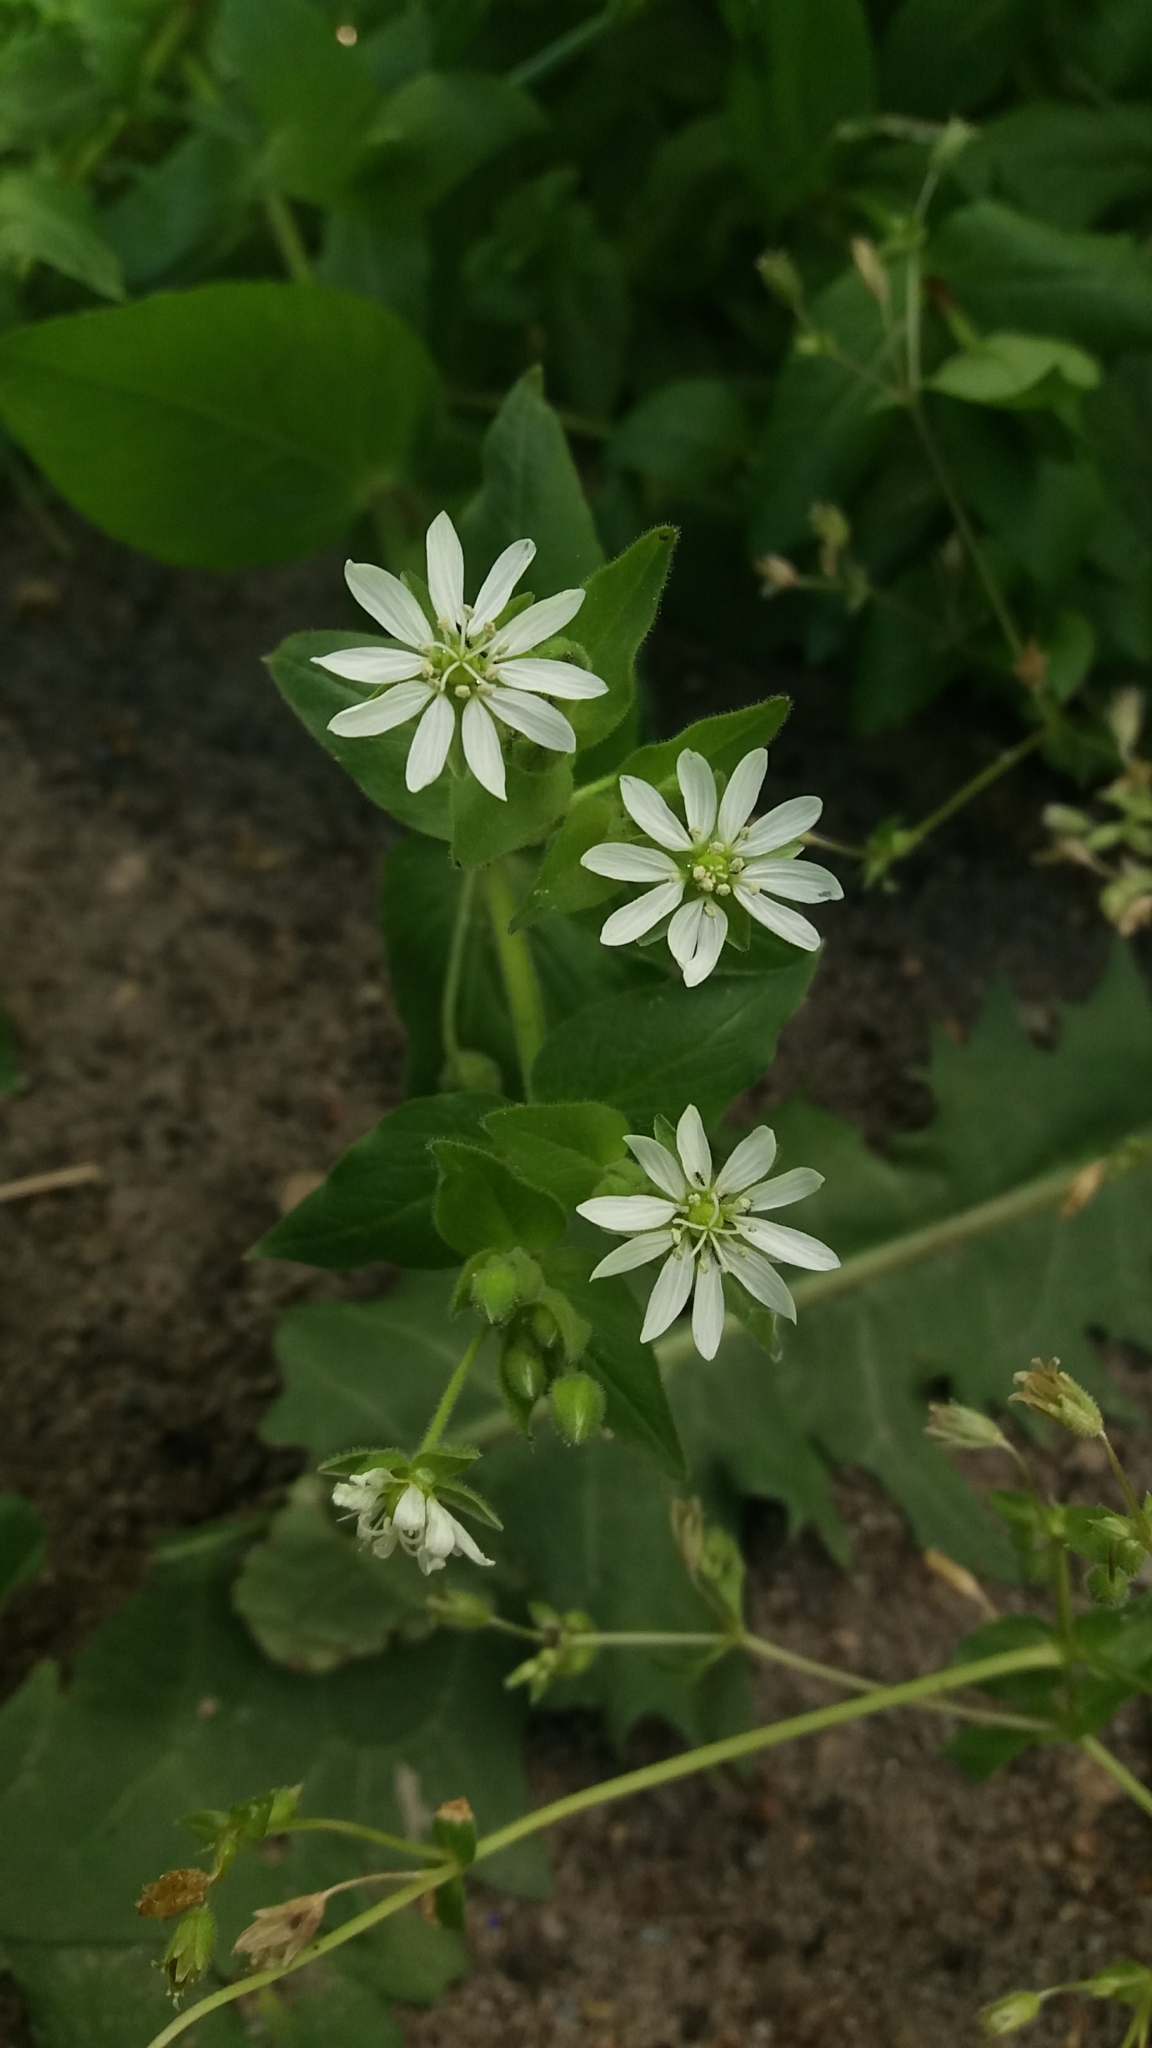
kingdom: Plantae
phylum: Tracheophyta
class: Magnoliopsida
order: Caryophyllales
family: Caryophyllaceae
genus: Stellaria
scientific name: Stellaria aquatica
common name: Water chickweed
